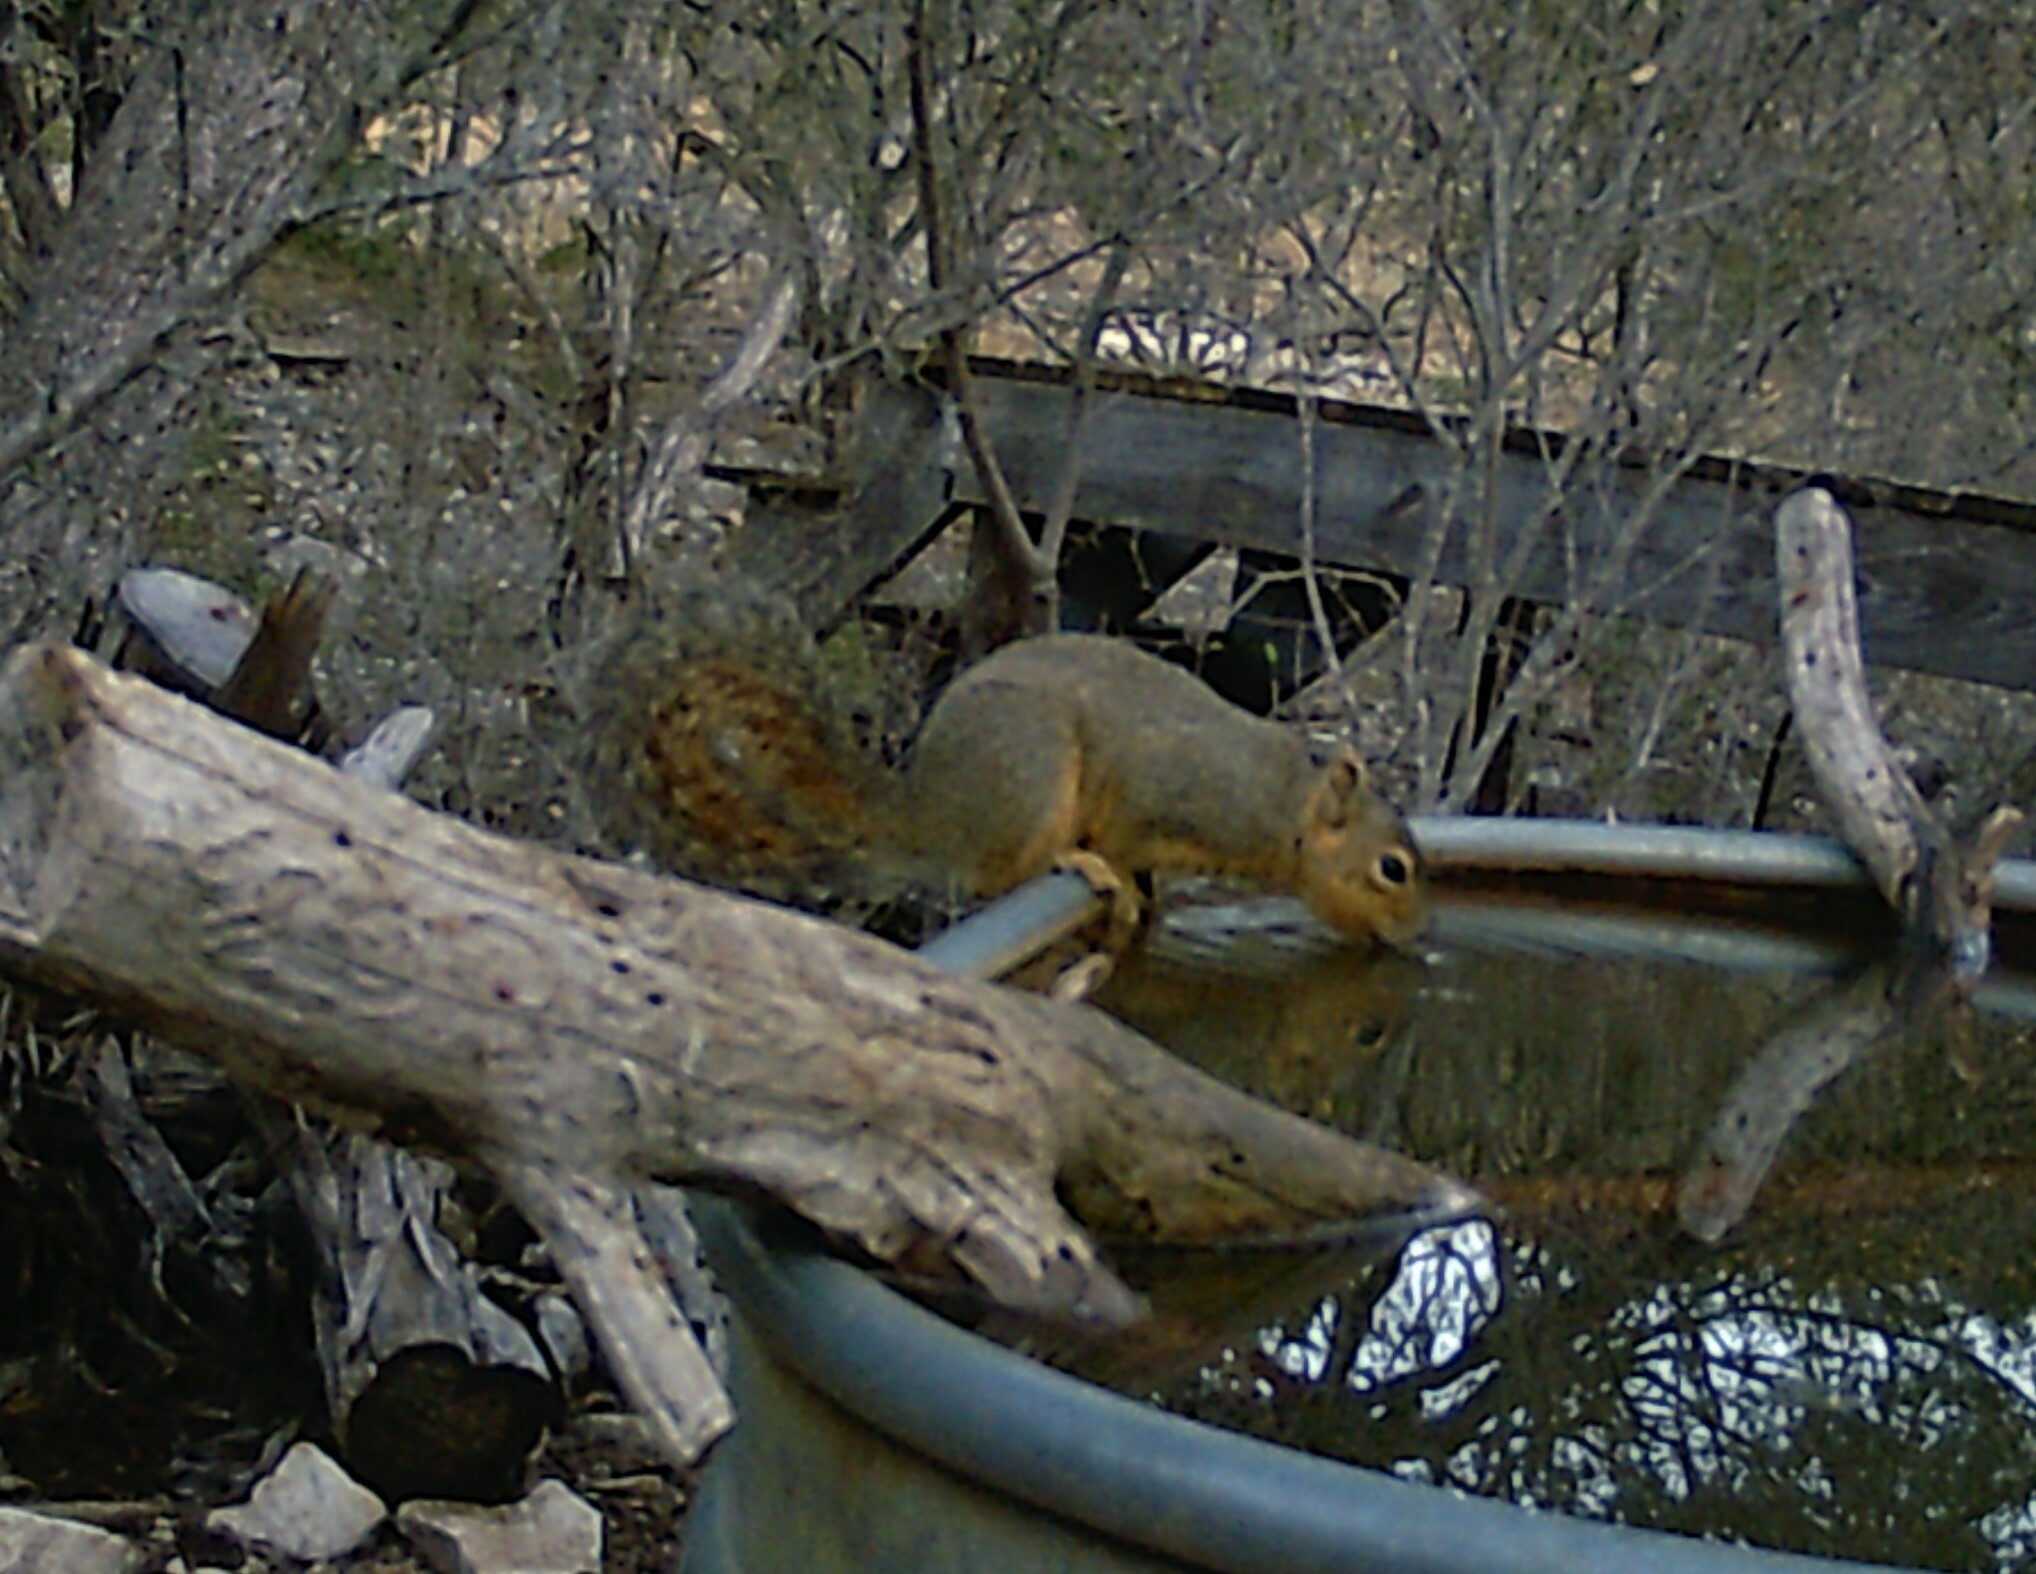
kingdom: Animalia
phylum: Chordata
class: Mammalia
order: Rodentia
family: Sciuridae
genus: Sciurus
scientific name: Sciurus niger
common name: Fox squirrel
